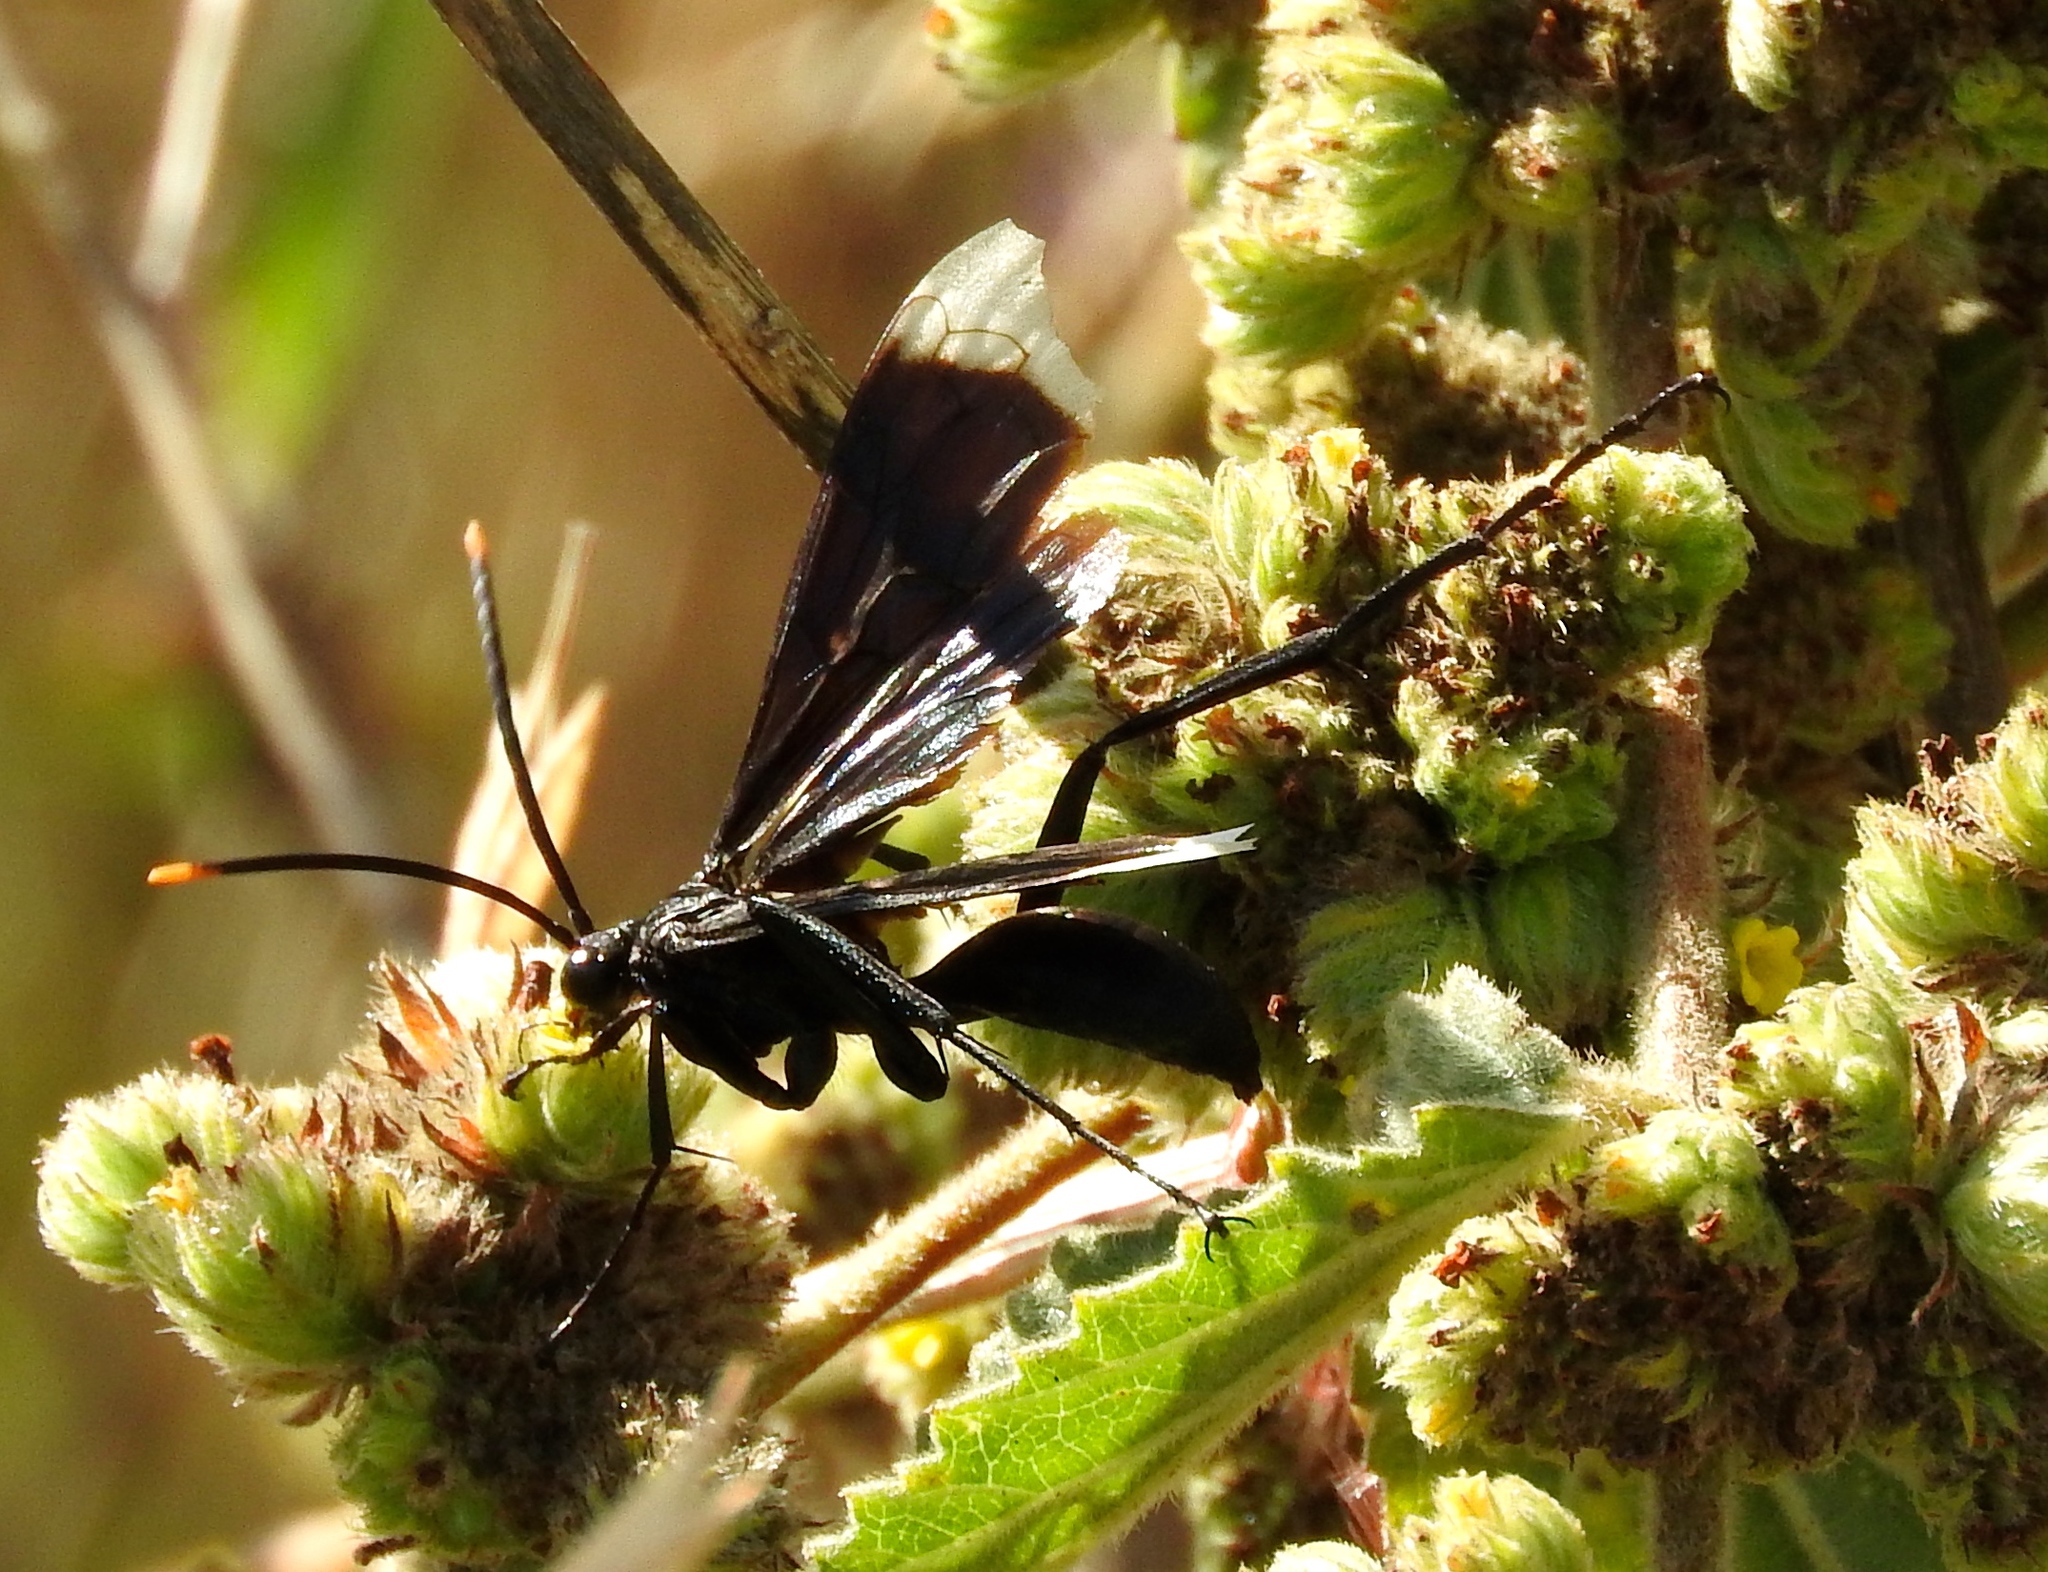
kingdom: Animalia
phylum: Arthropoda
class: Insecta
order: Hymenoptera
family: Pompilidae
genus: Pepsis
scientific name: Pepsis
